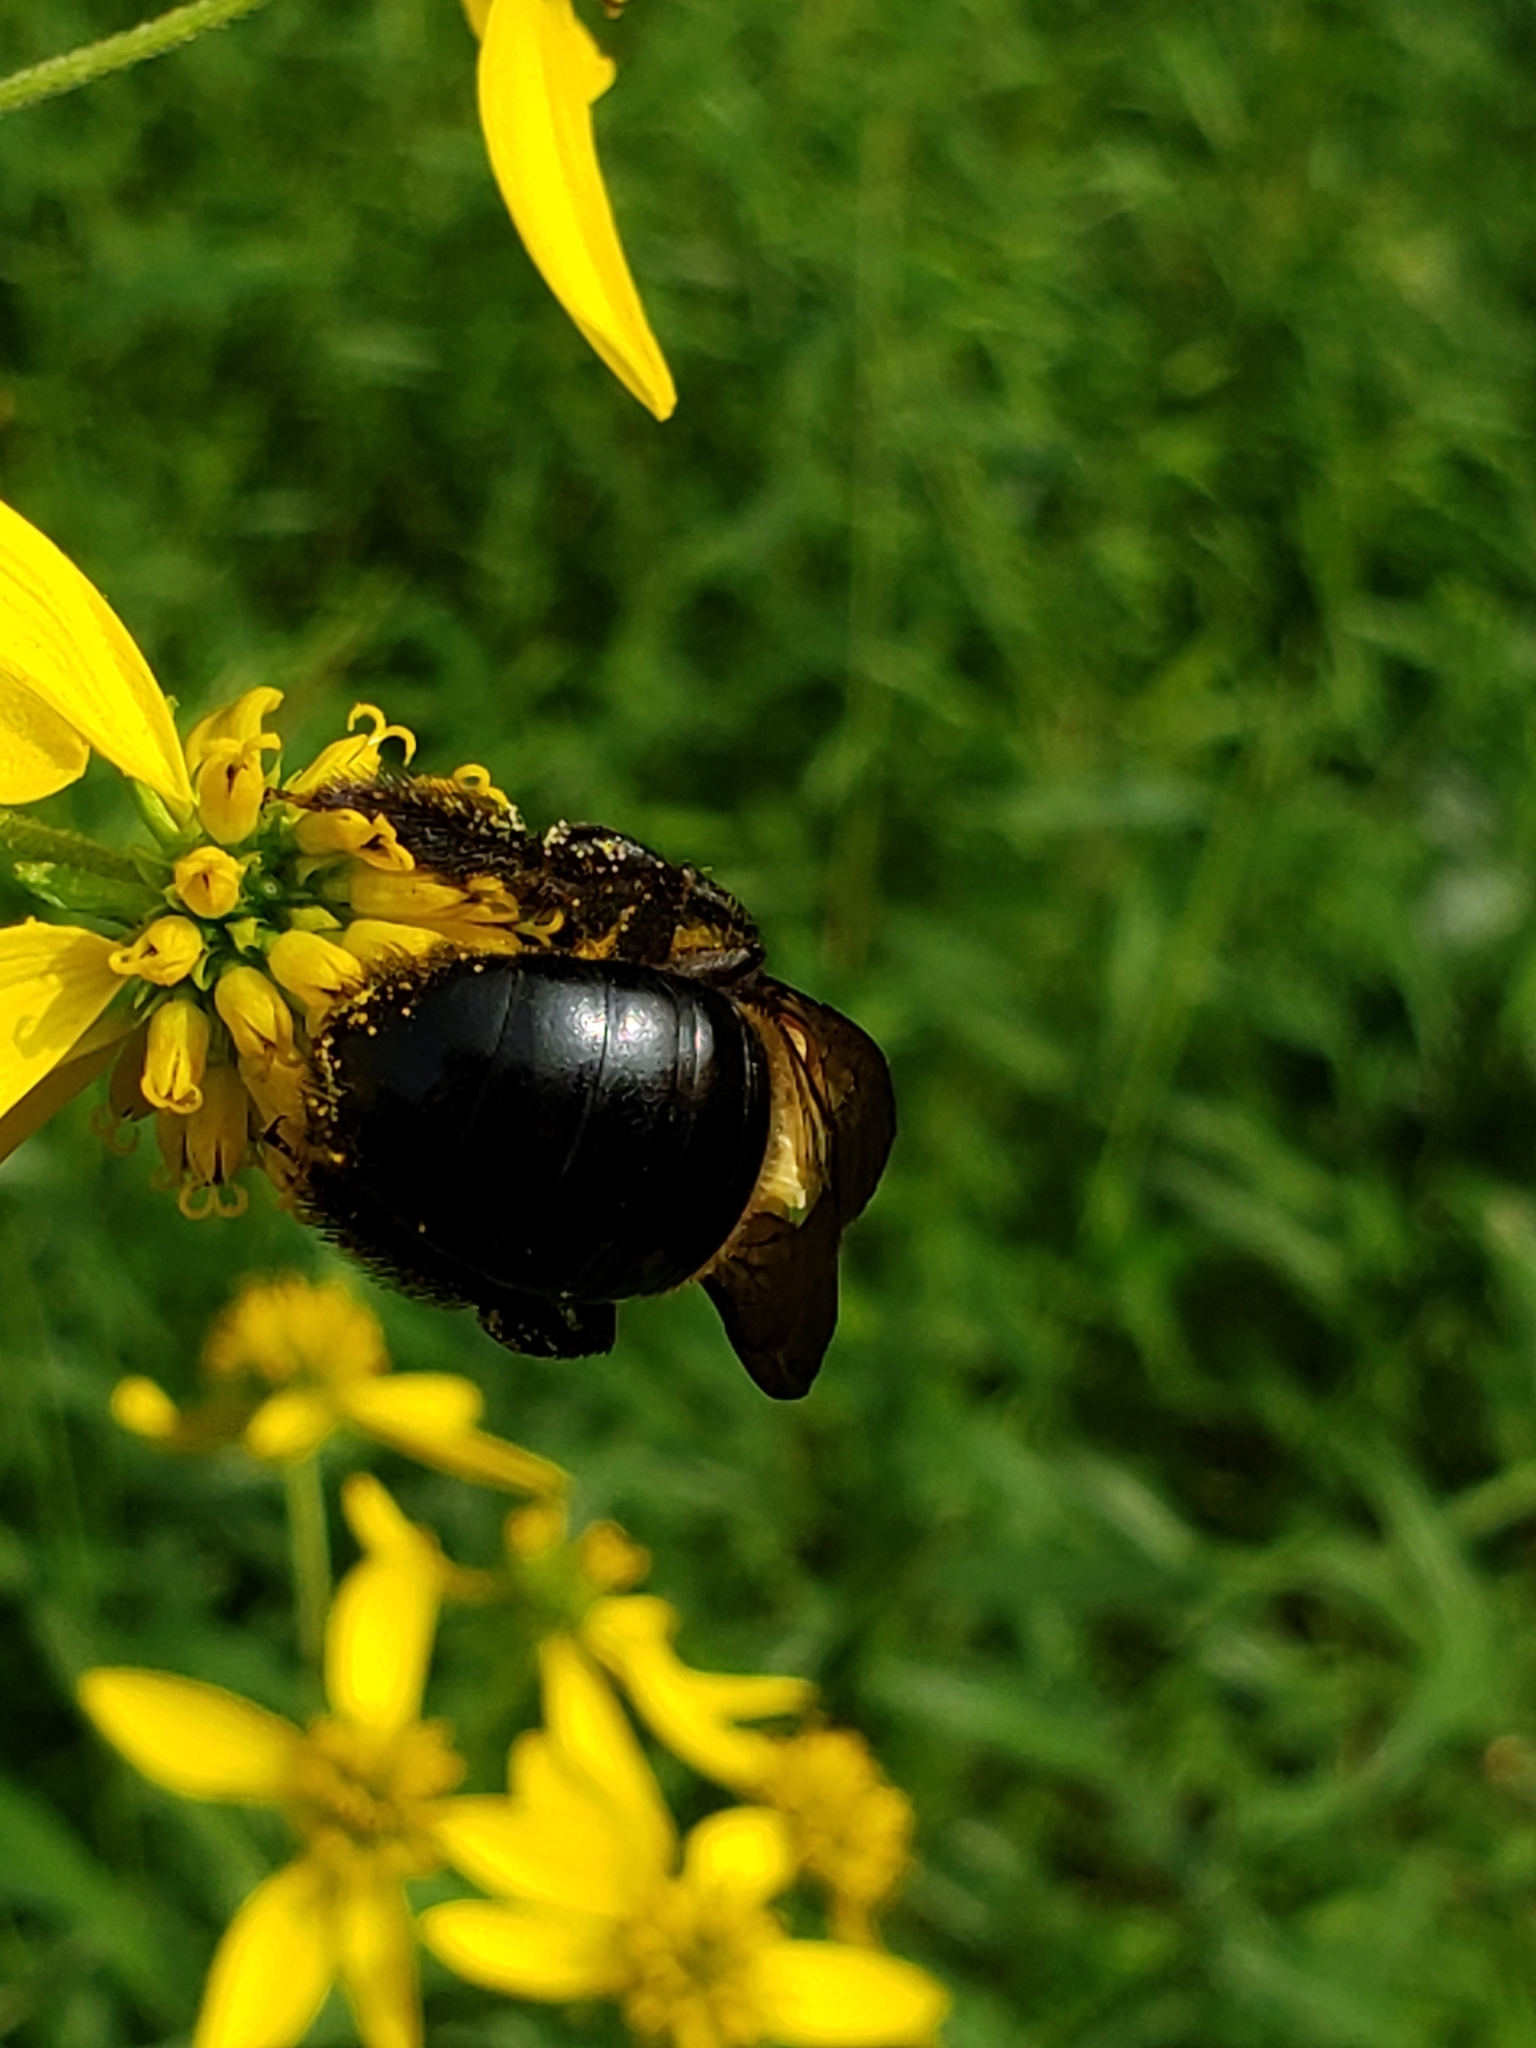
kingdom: Animalia
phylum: Arthropoda
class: Insecta
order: Hymenoptera
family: Apidae
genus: Xylocopa
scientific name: Xylocopa virginica
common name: Carpenter bee
